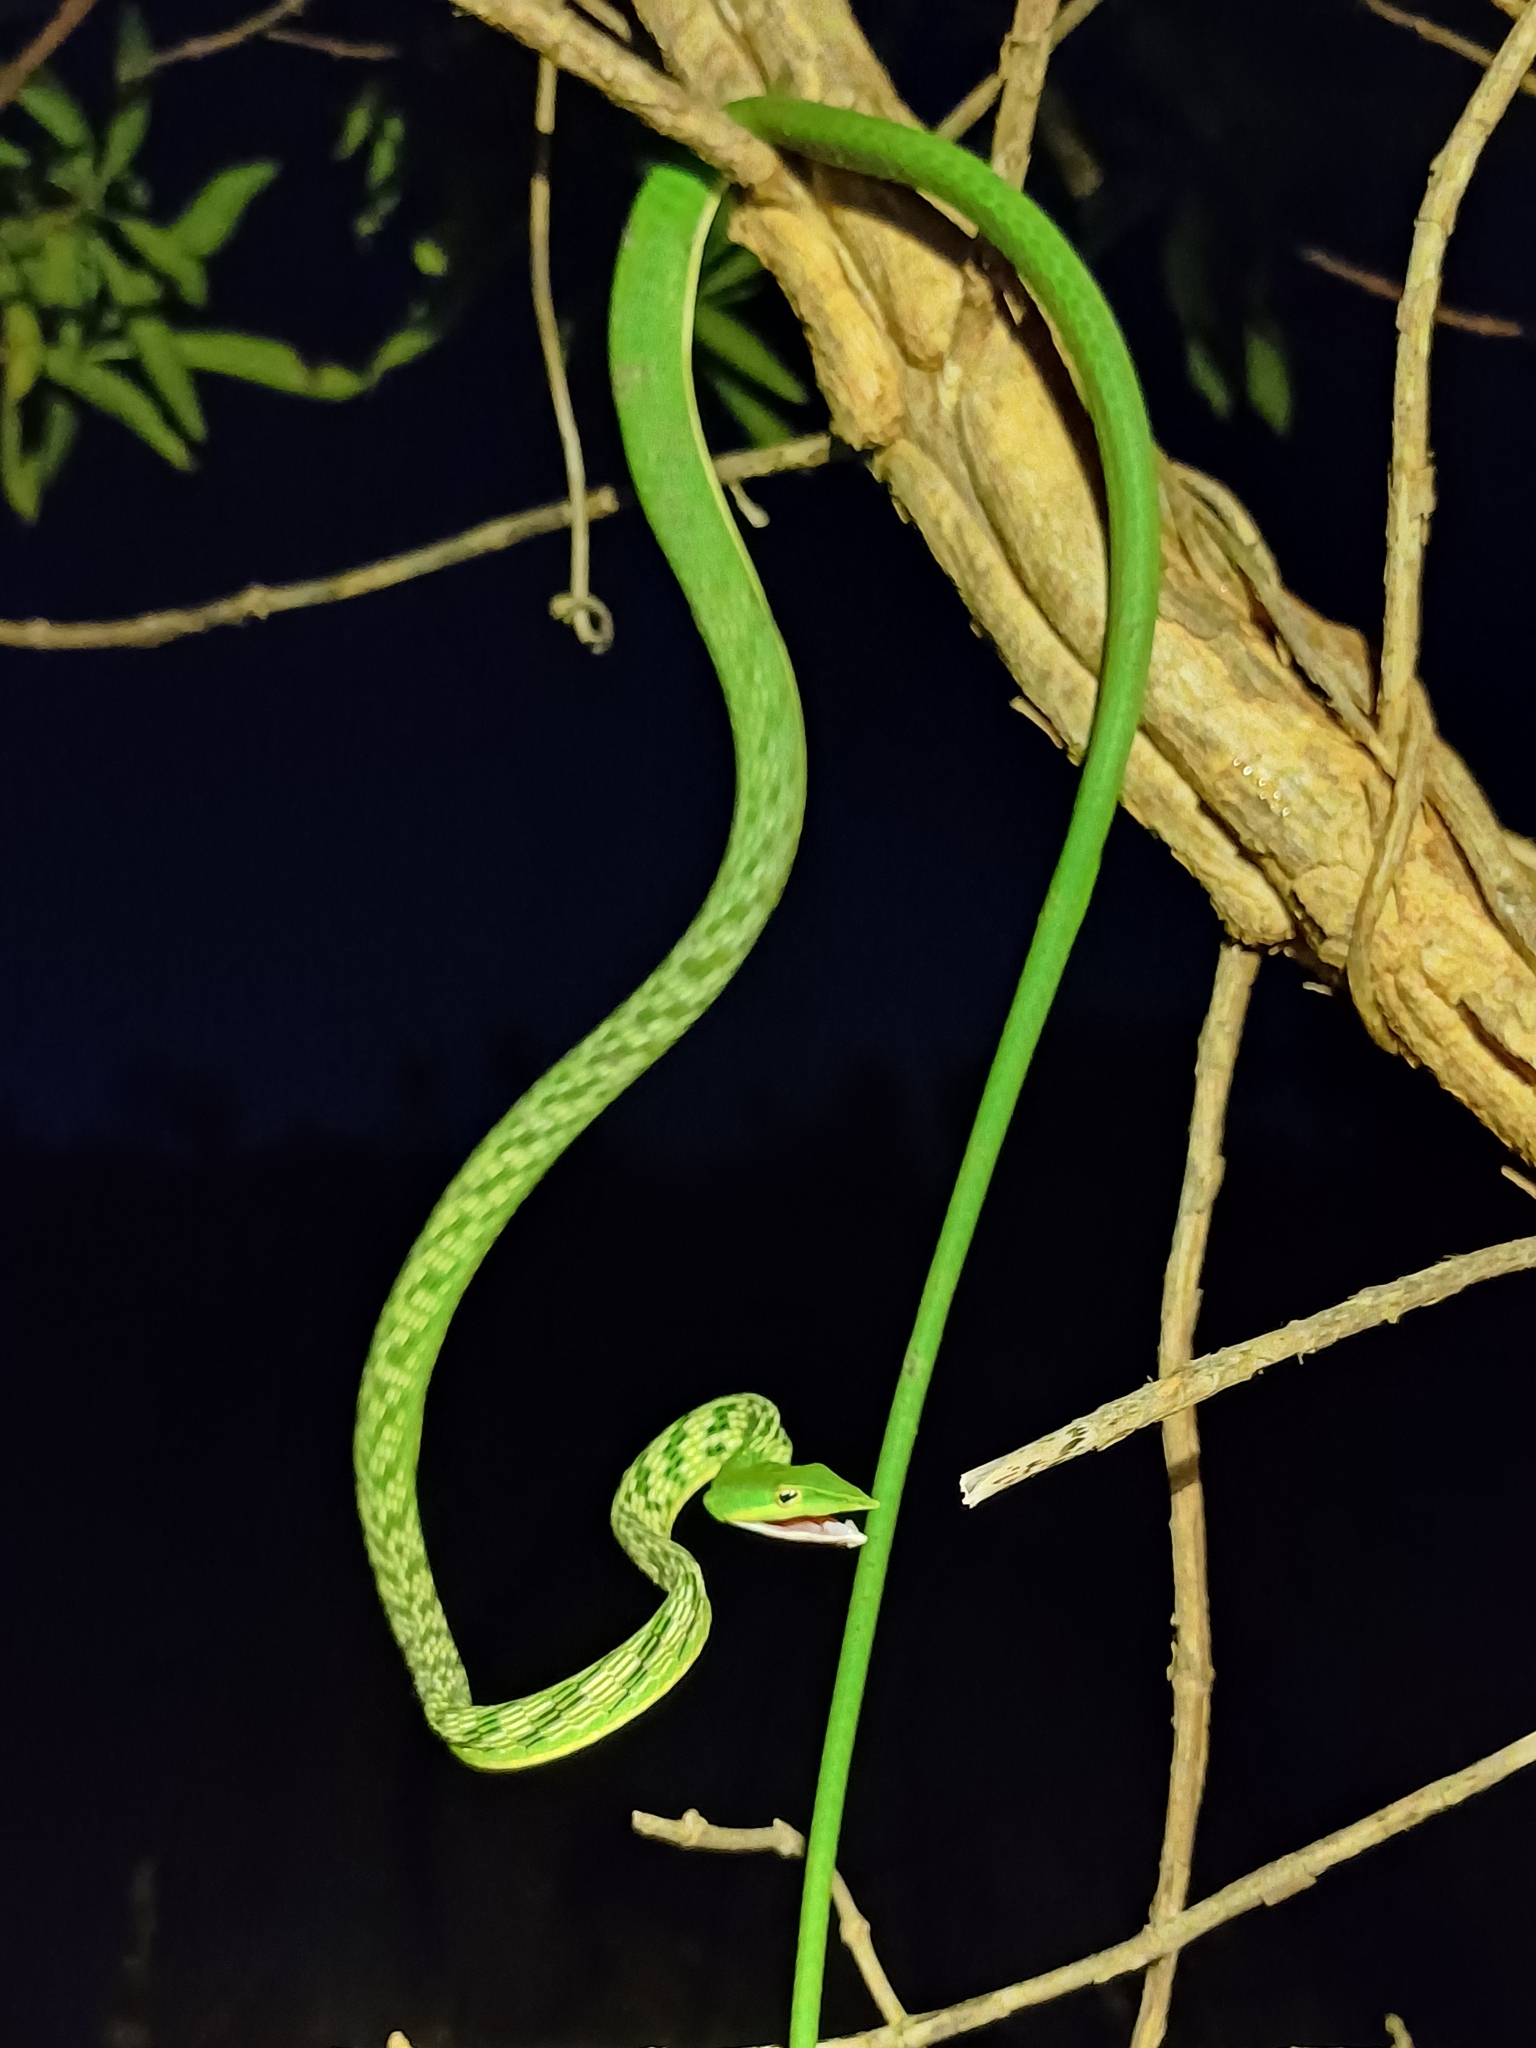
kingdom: Animalia
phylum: Chordata
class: Squamata
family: Colubridae
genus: Ahaetulla
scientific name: Ahaetulla oxyrhyncha
